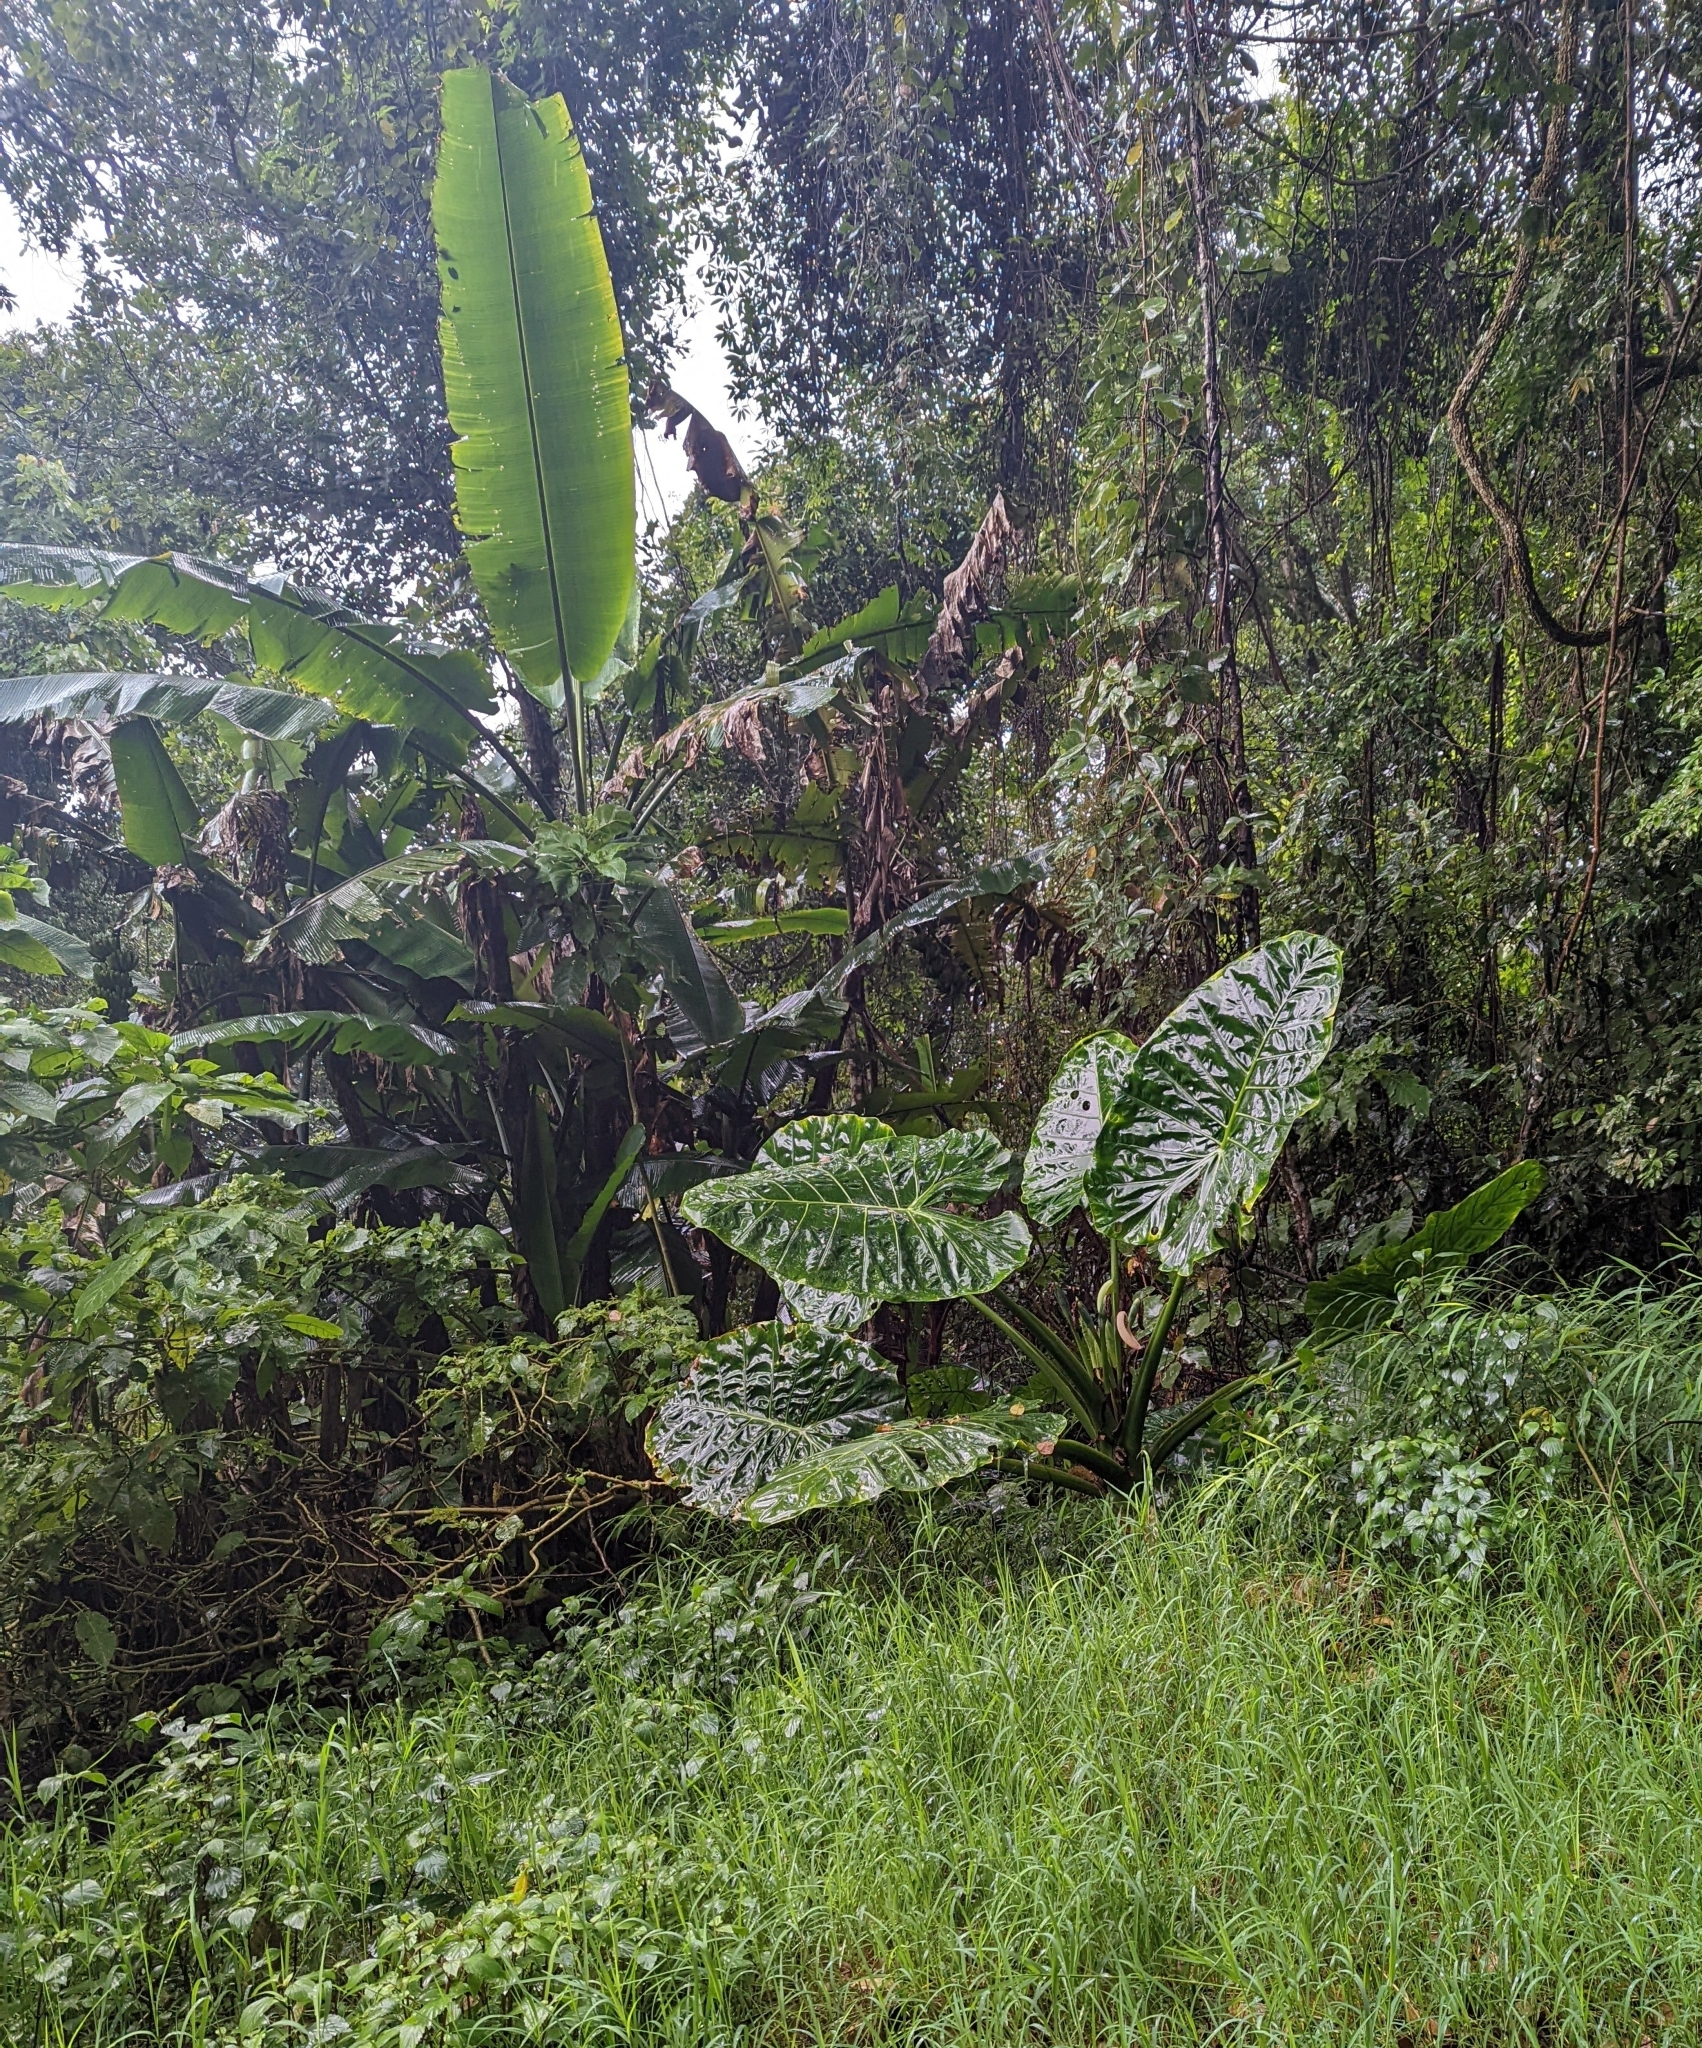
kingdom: Plantae
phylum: Tracheophyta
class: Liliopsida
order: Alismatales
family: Araceae
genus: Alocasia
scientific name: Alocasia macrorrhizos
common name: Giant taro
